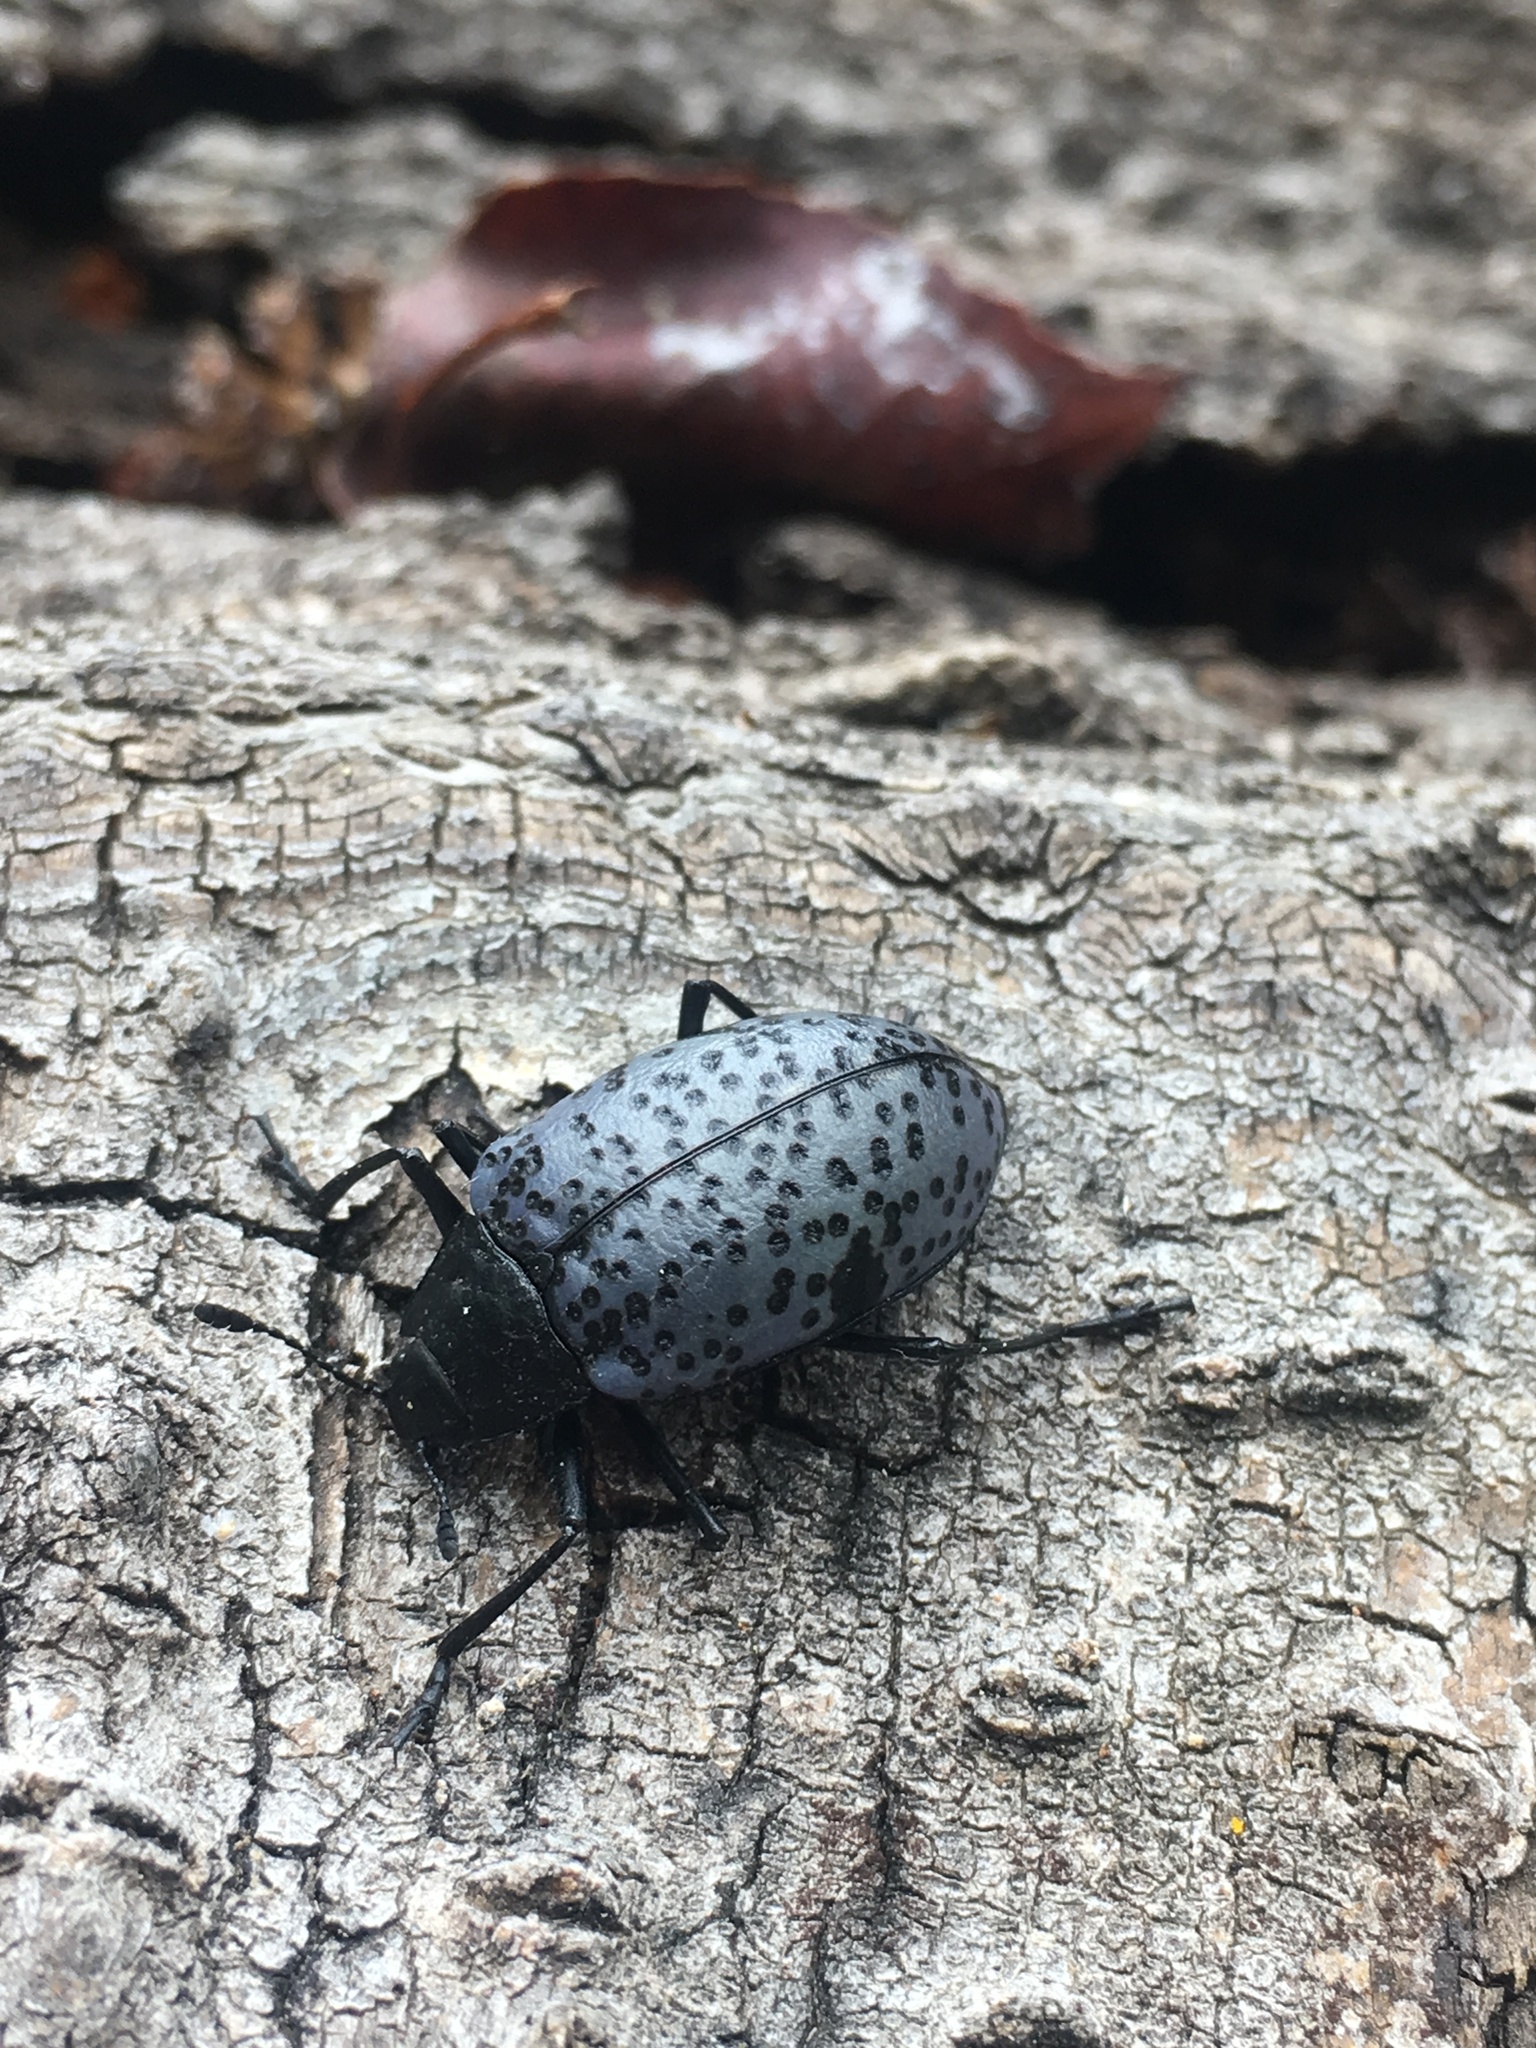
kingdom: Animalia
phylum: Arthropoda
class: Insecta
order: Coleoptera
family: Erotylidae
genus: Gibbifer
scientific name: Gibbifer californicus
